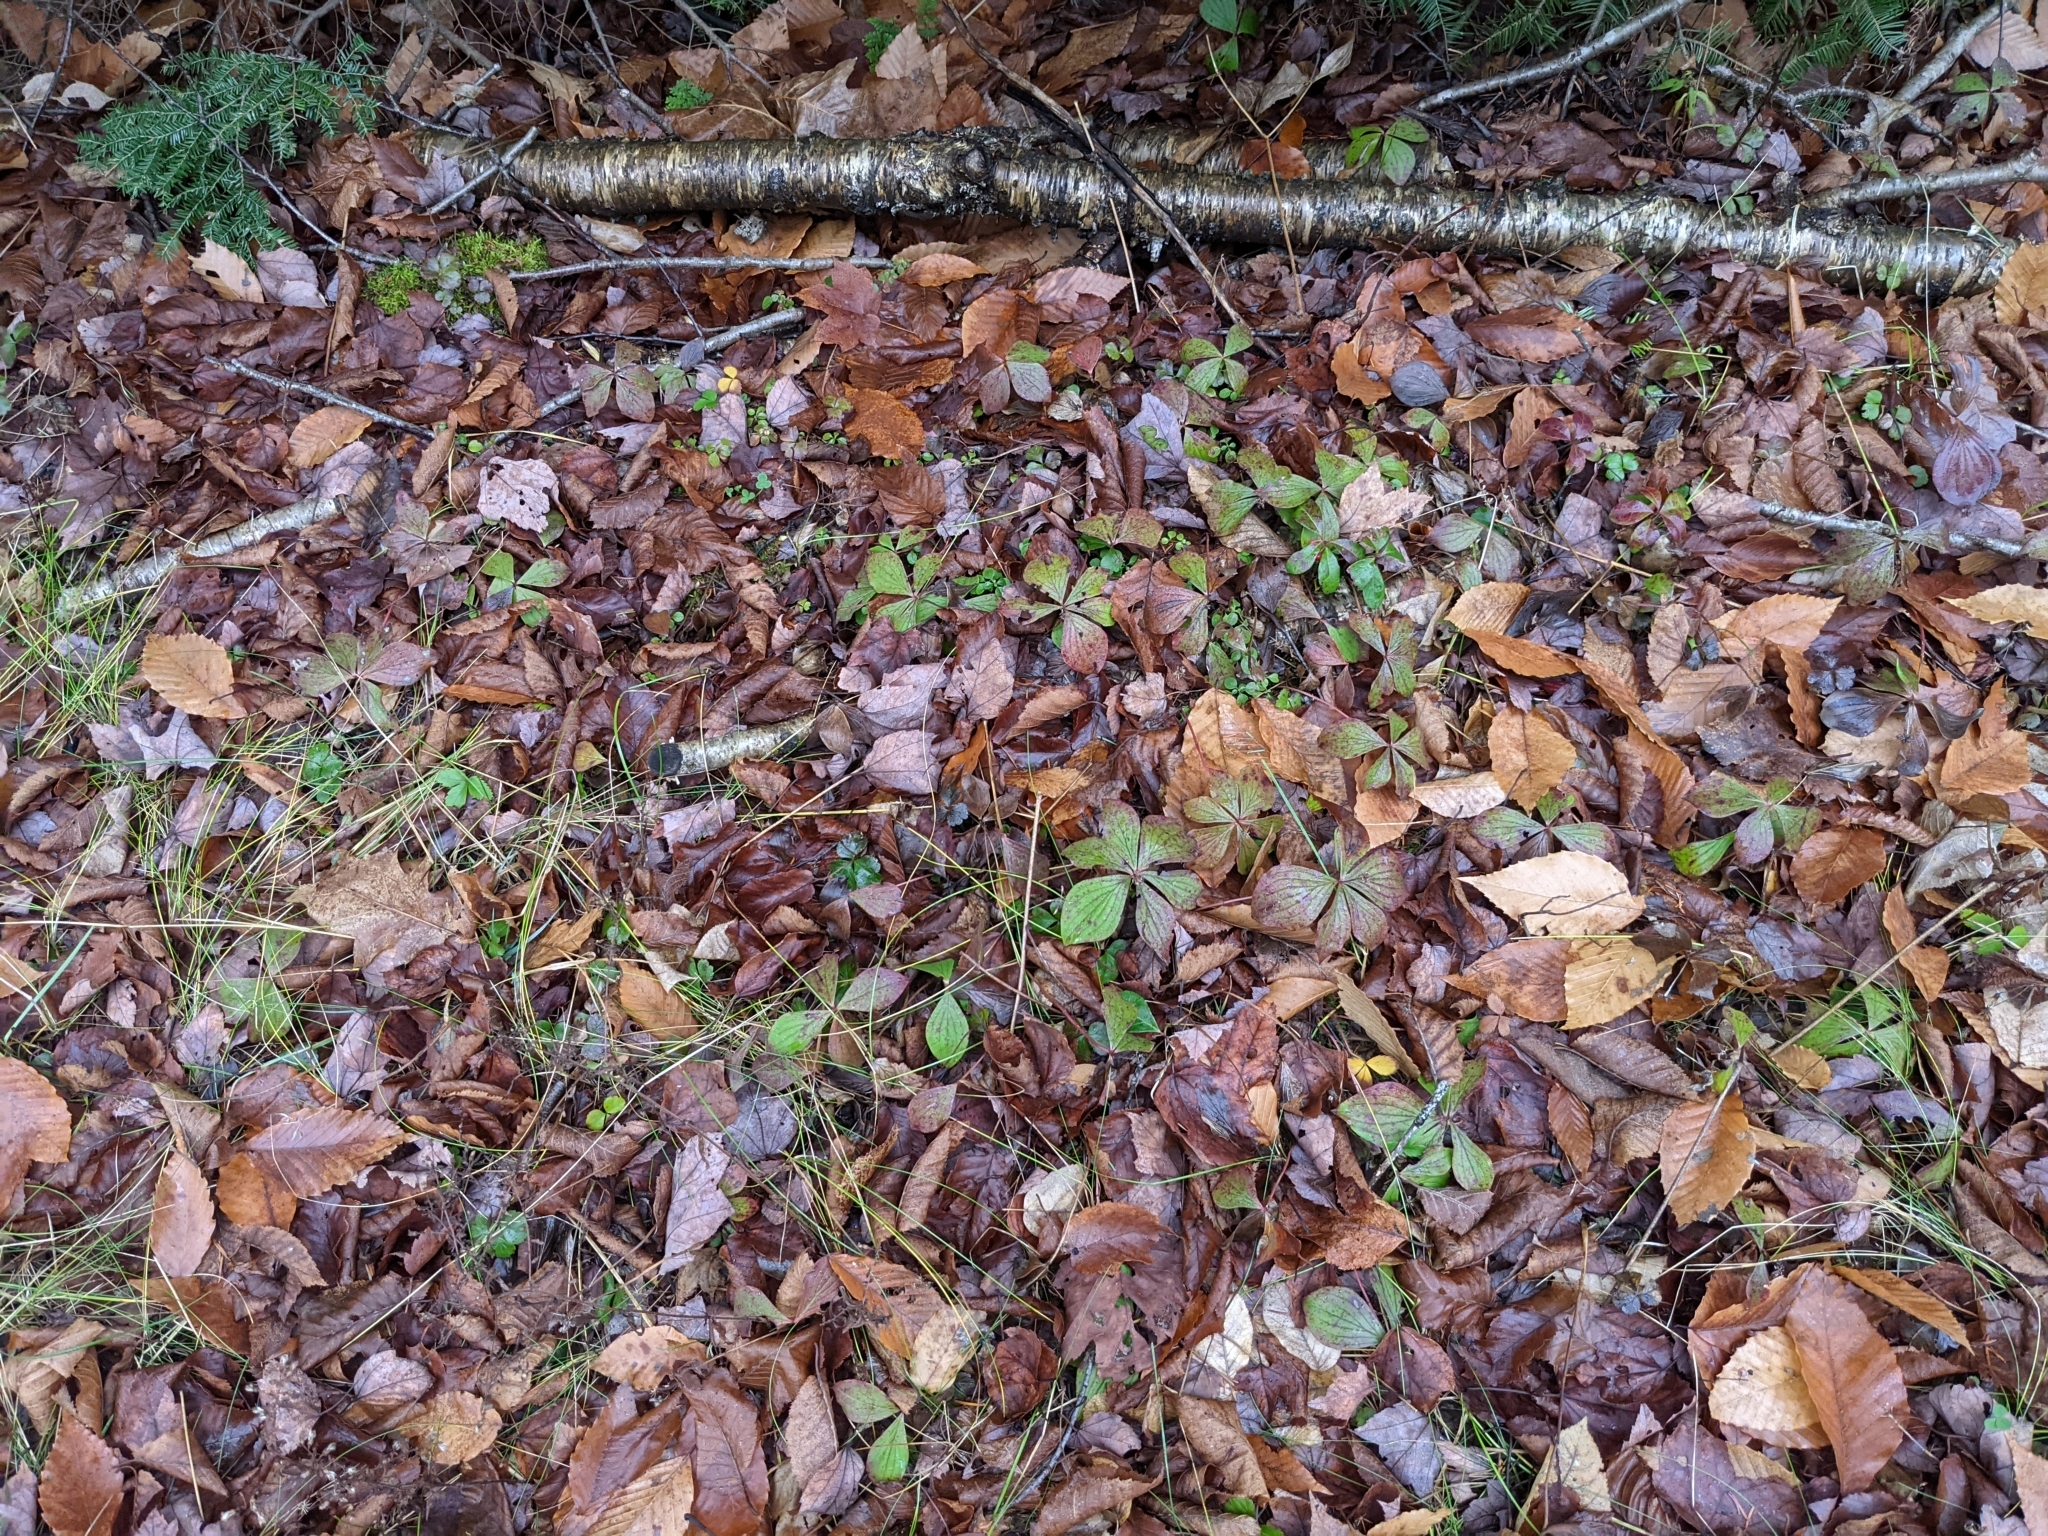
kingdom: Plantae
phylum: Tracheophyta
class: Magnoliopsida
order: Cornales
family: Cornaceae
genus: Cornus
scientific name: Cornus canadensis
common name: Creeping dogwood
